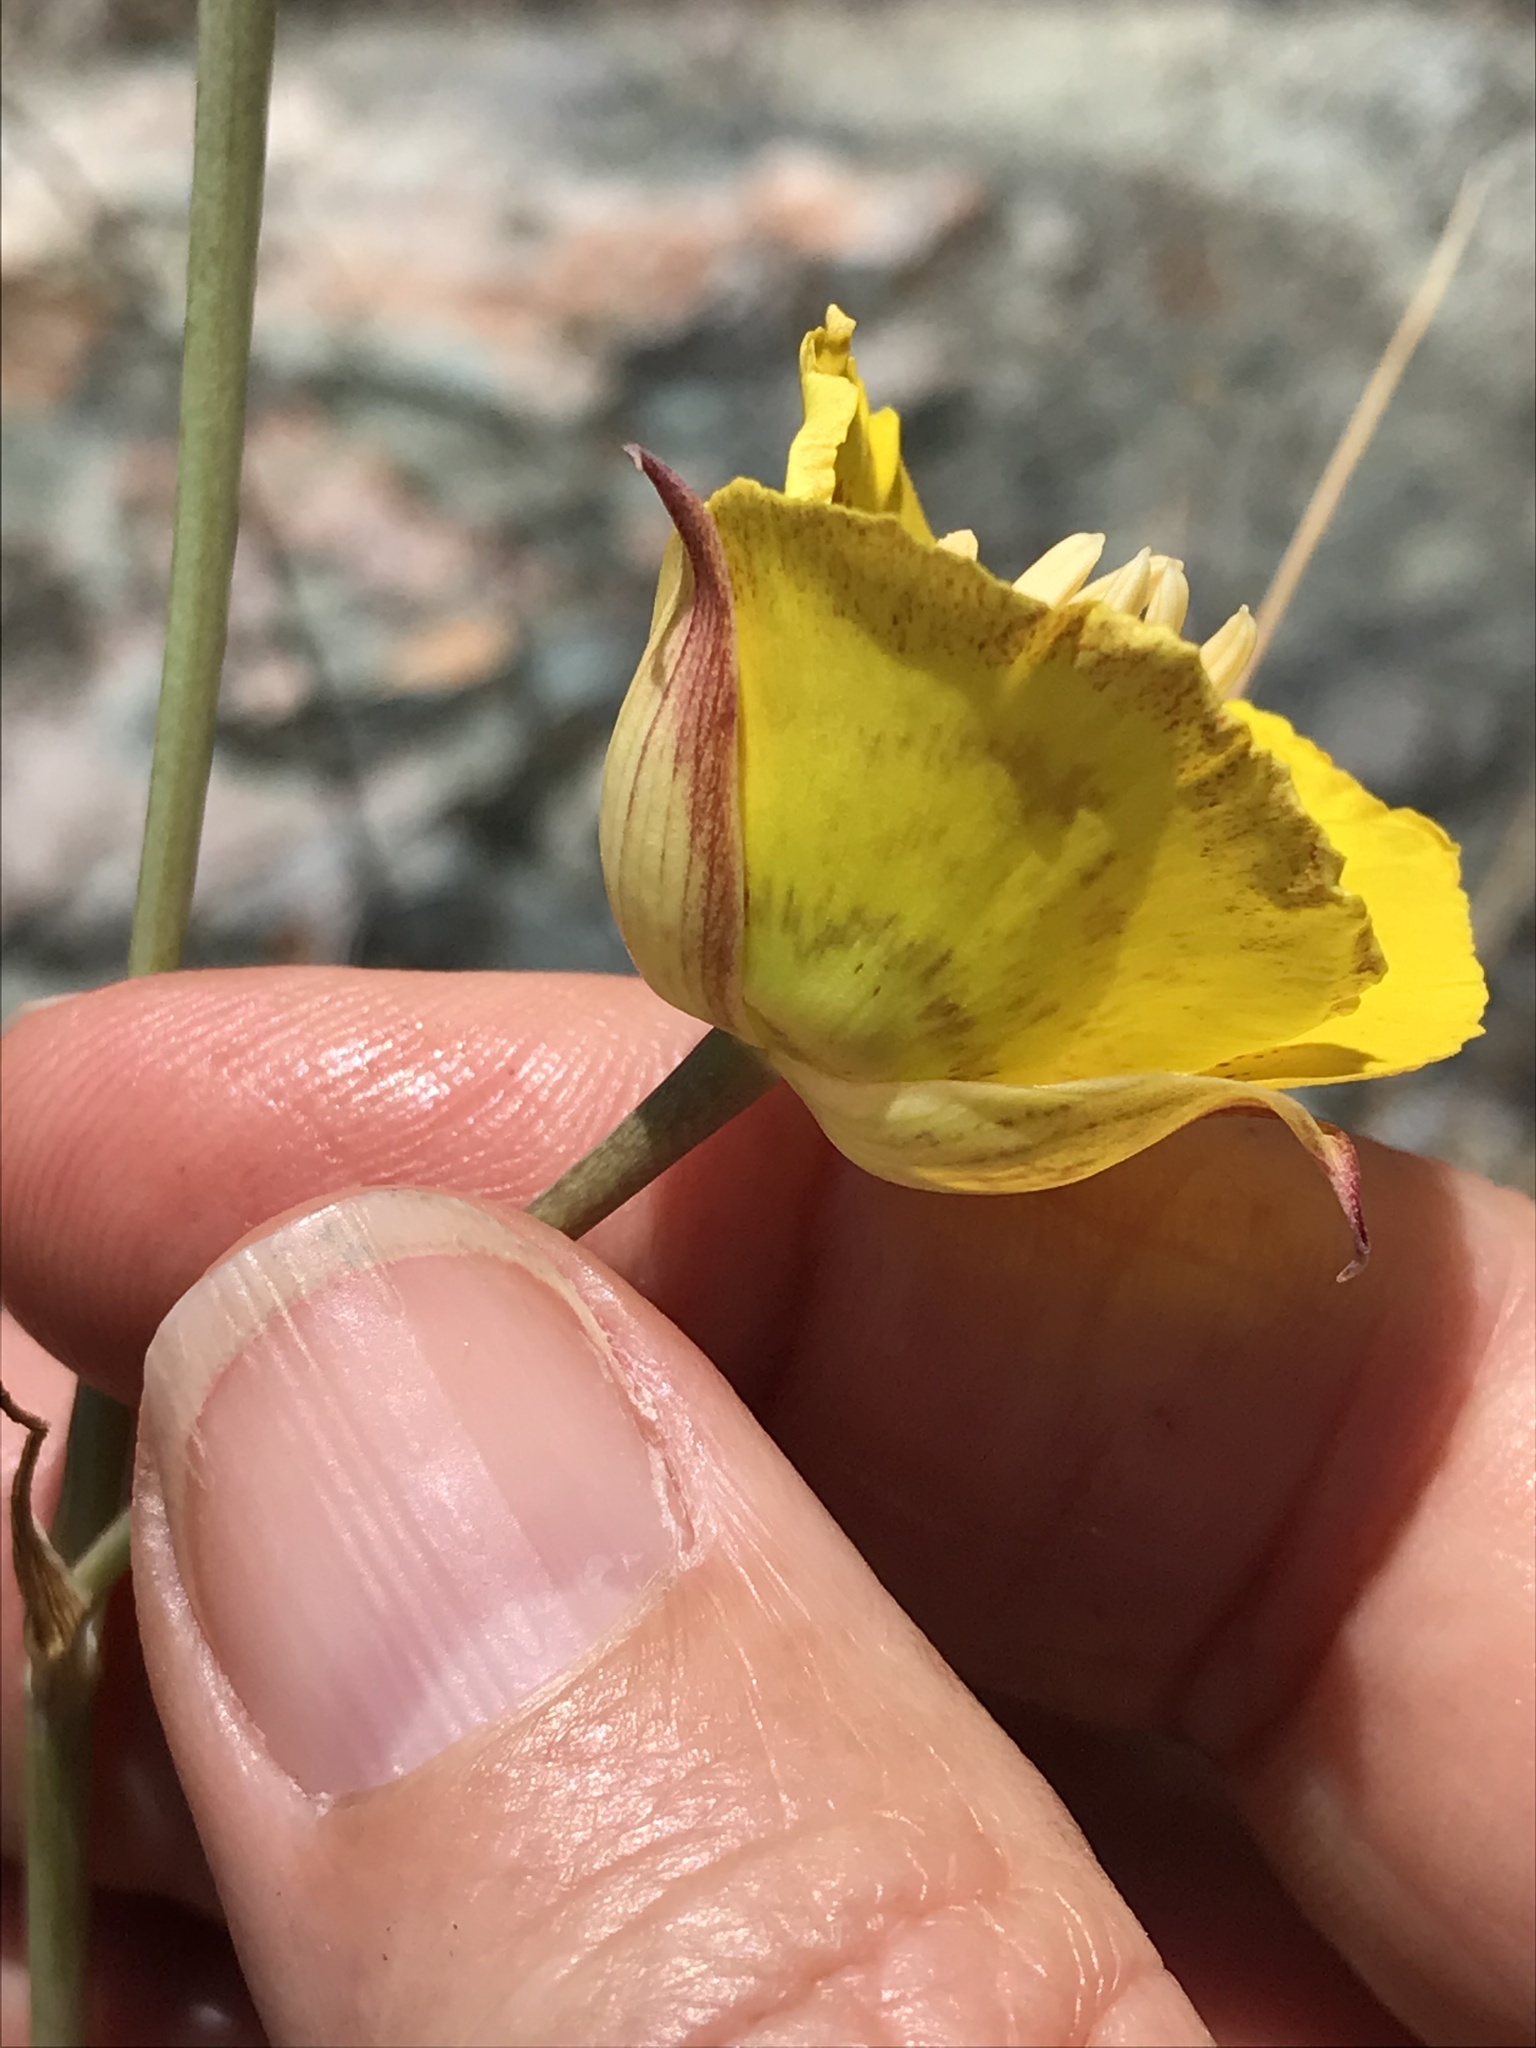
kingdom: Plantae
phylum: Tracheophyta
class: Liliopsida
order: Liliales
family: Liliaceae
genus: Calochortus
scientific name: Calochortus luteus
